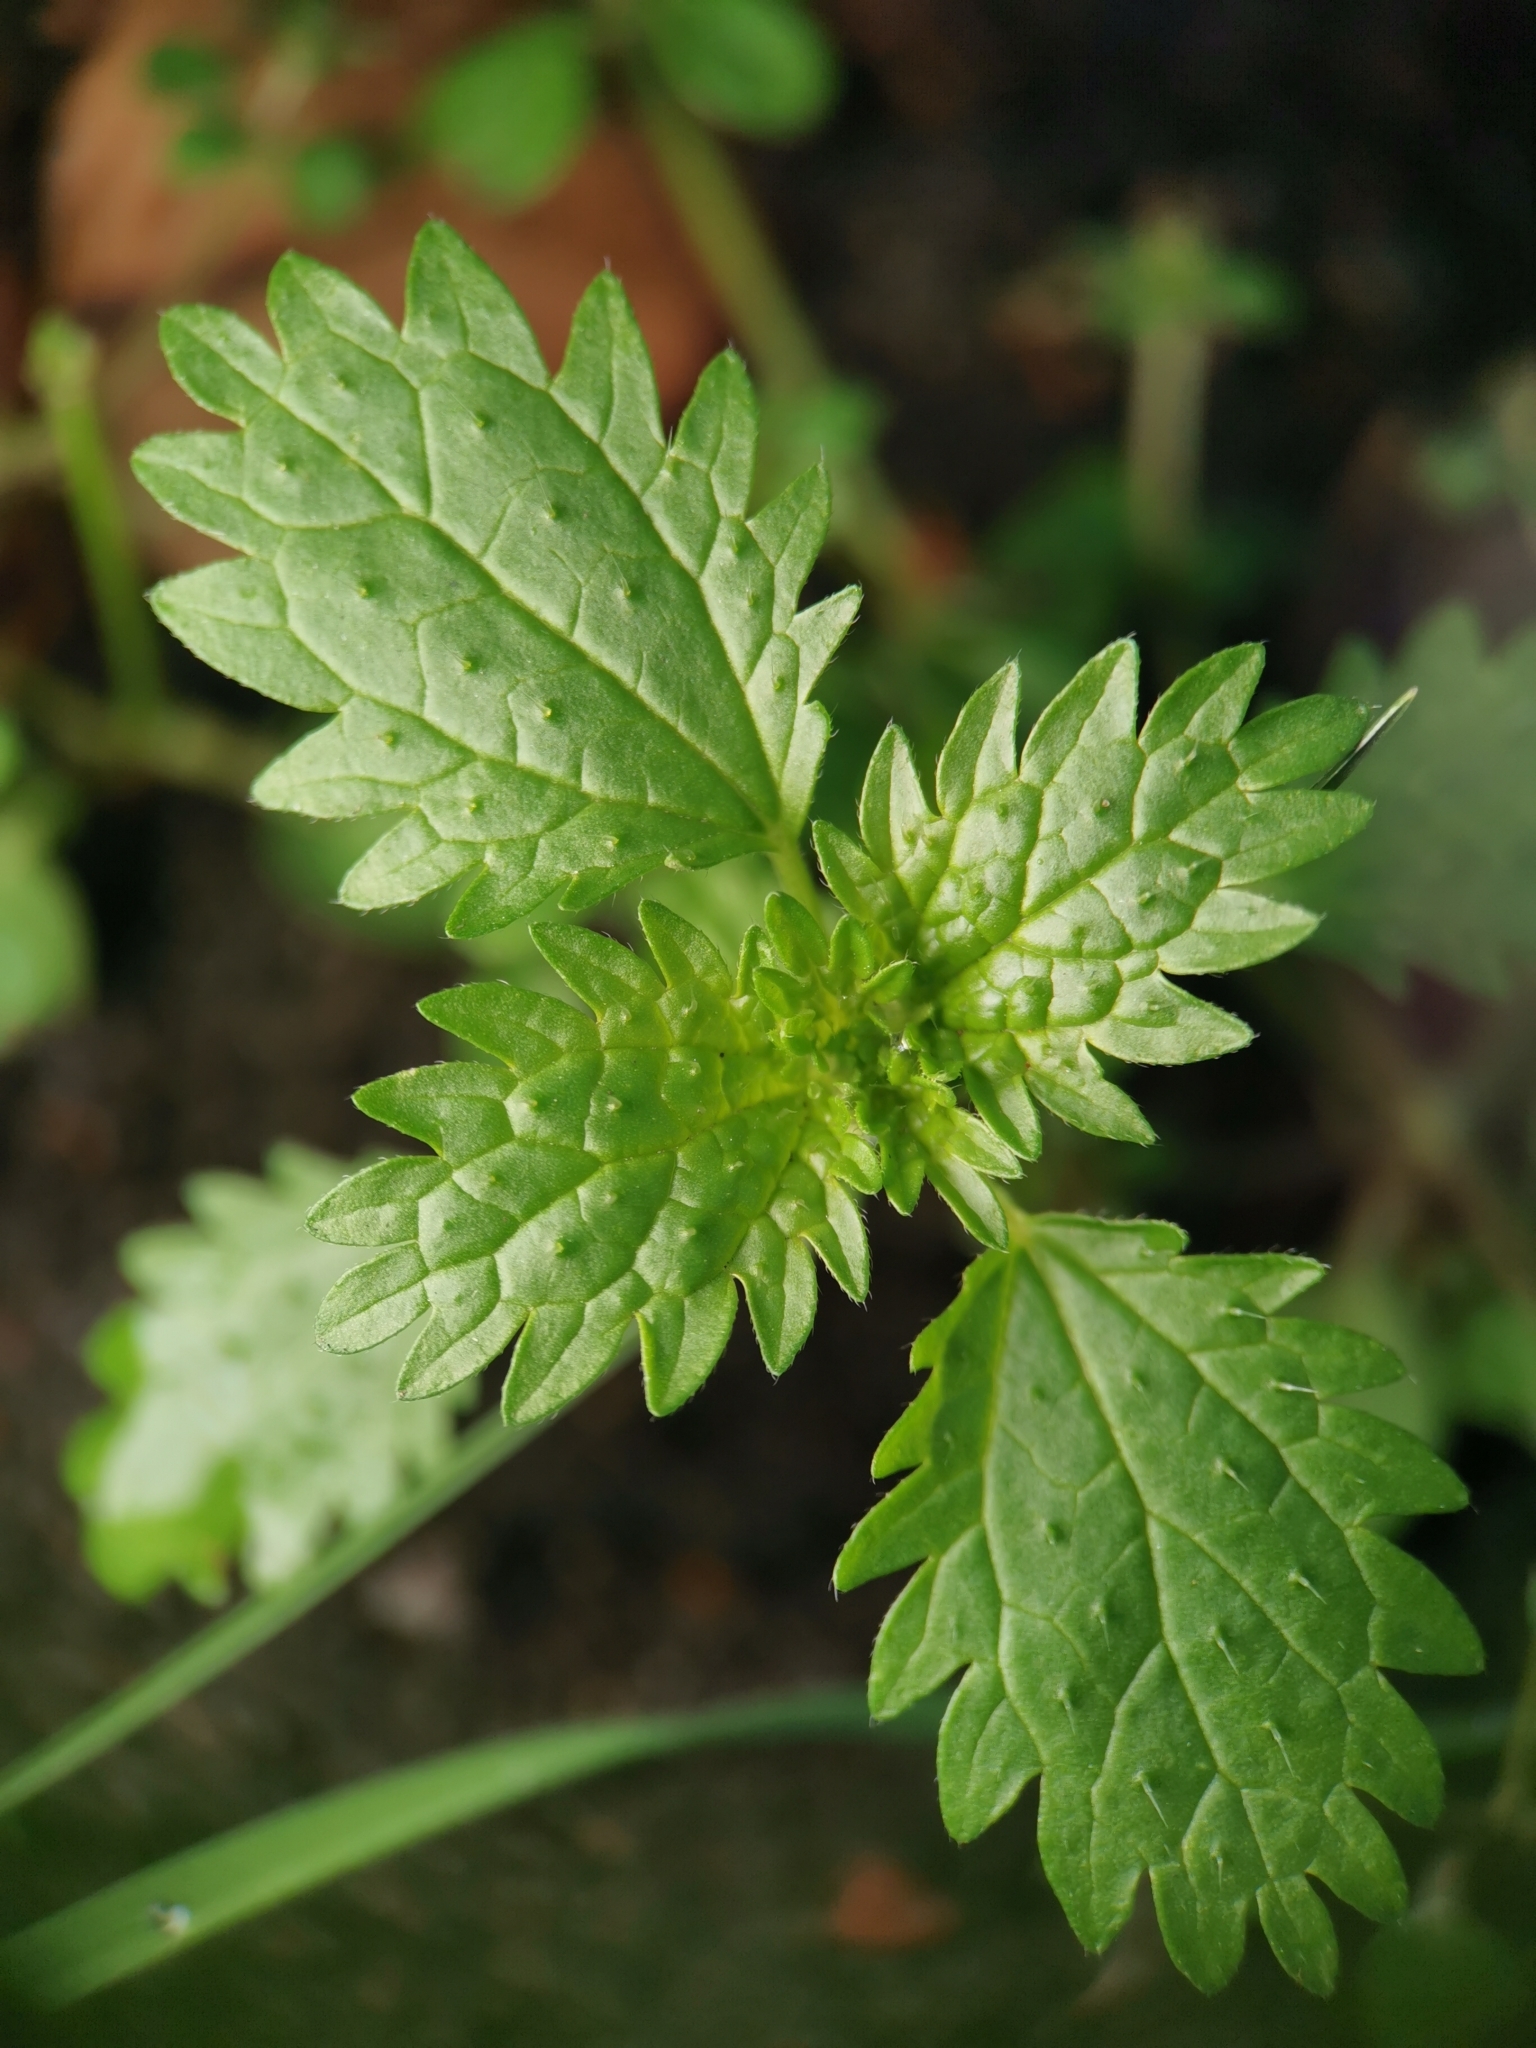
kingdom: Plantae
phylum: Tracheophyta
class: Magnoliopsida
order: Rosales
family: Urticaceae
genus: Urtica
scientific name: Urtica urens
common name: Dwarf nettle
